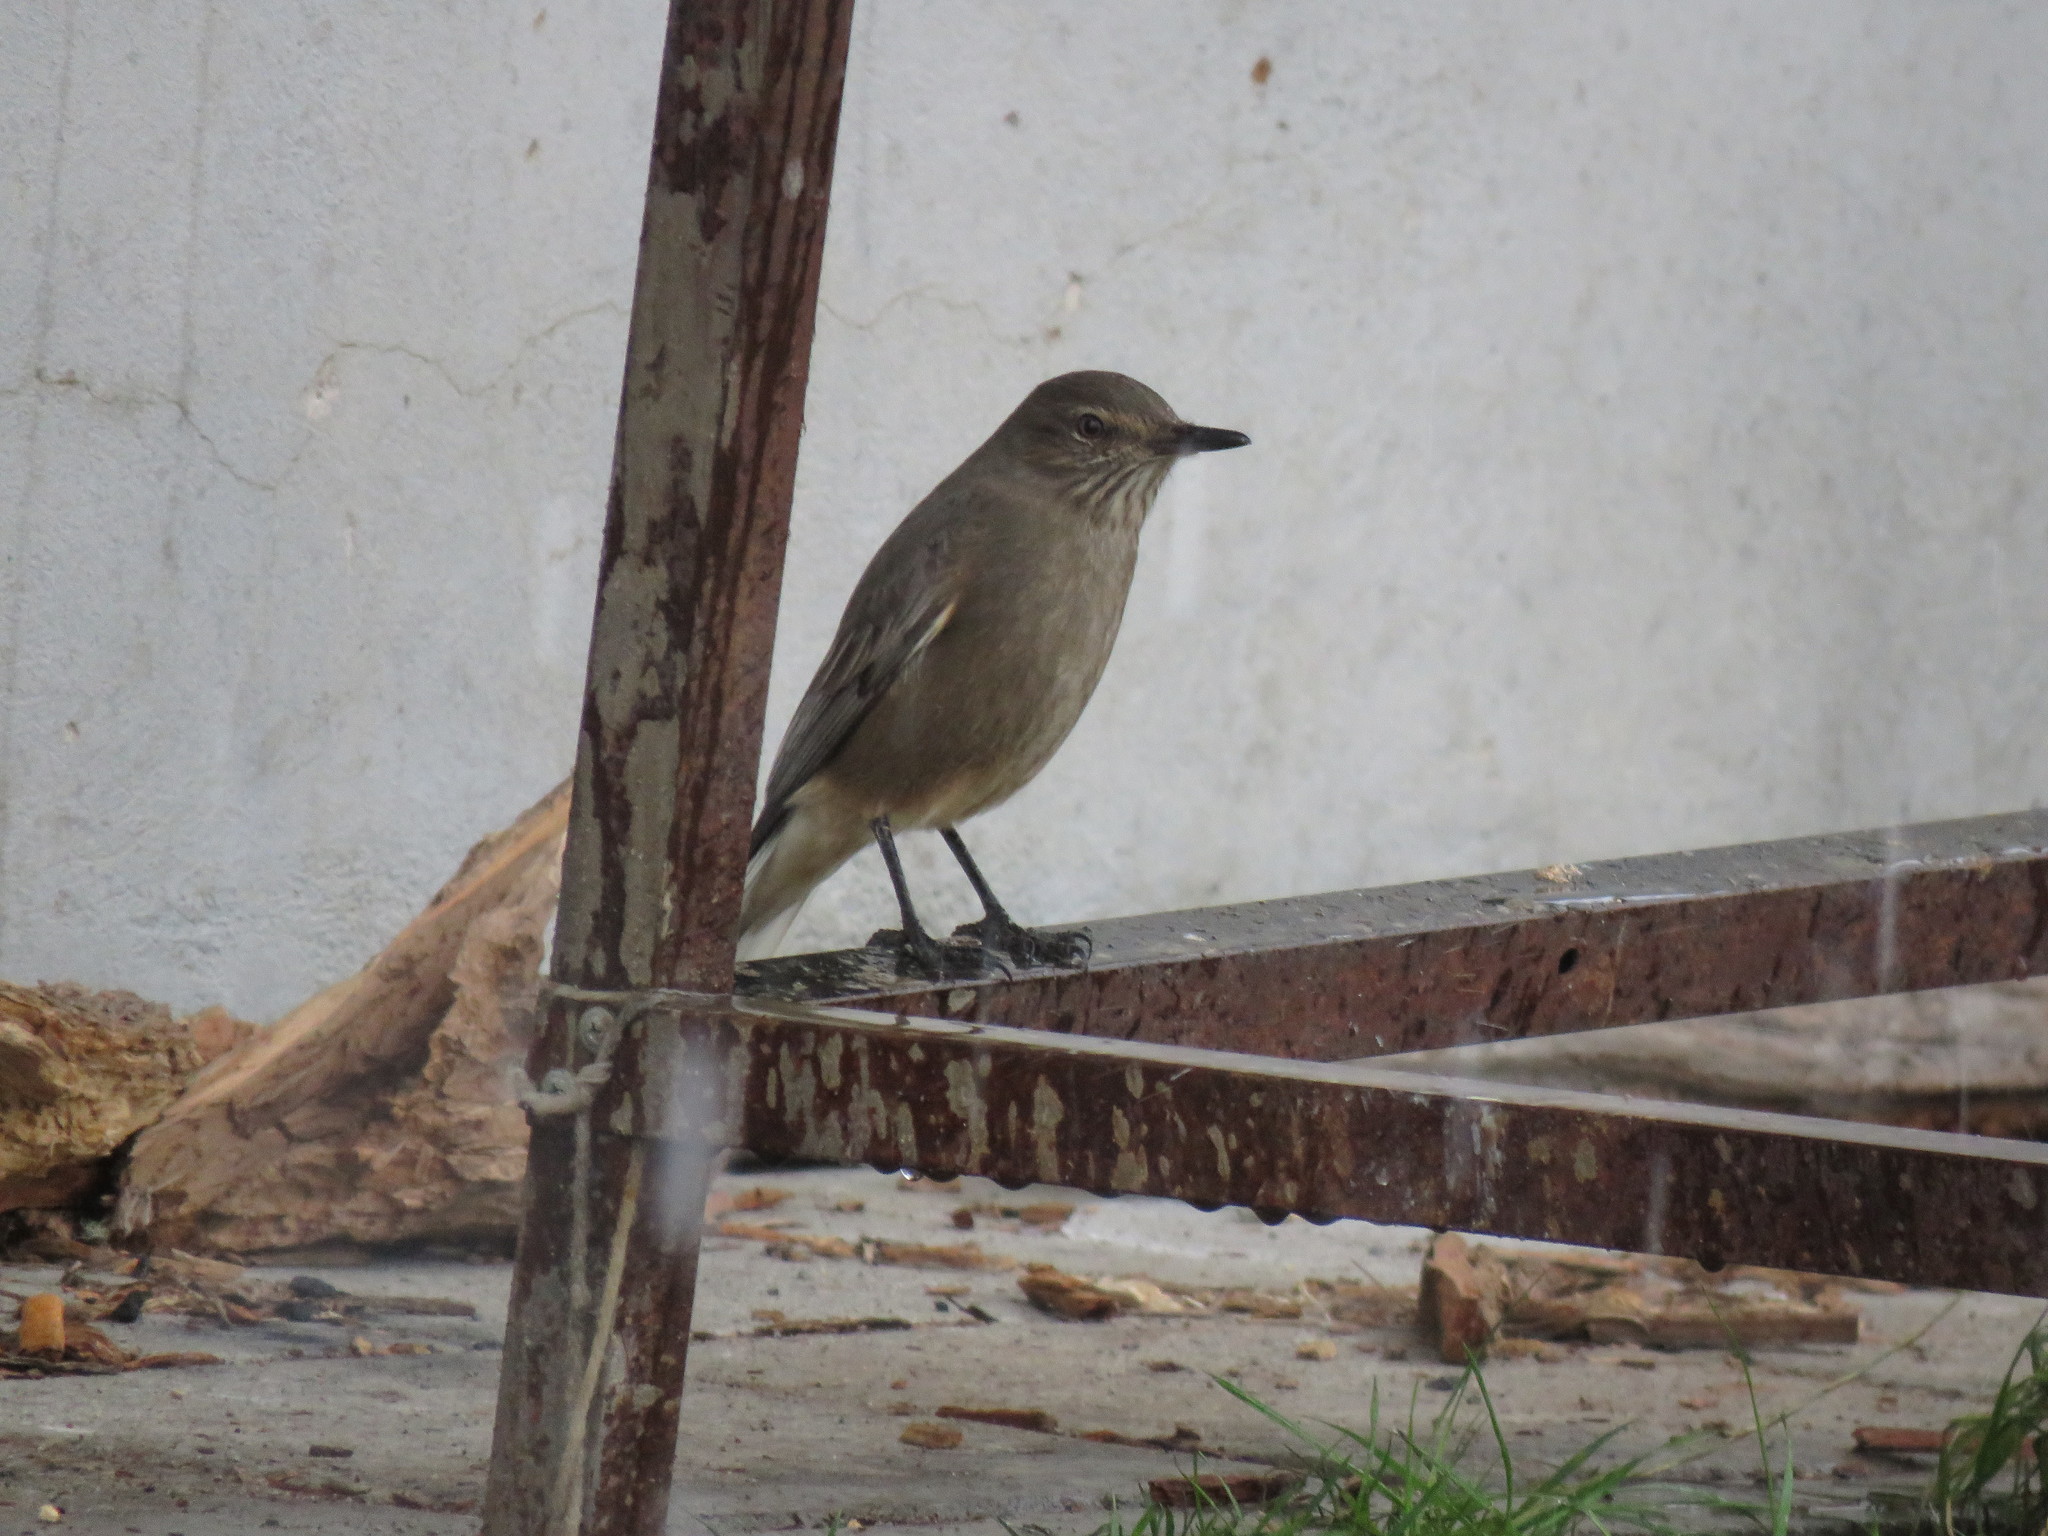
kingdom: Animalia
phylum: Chordata
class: Aves
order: Passeriformes
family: Tyrannidae
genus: Agriornis
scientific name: Agriornis montanus
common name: Black-billed shrike-tyrant
